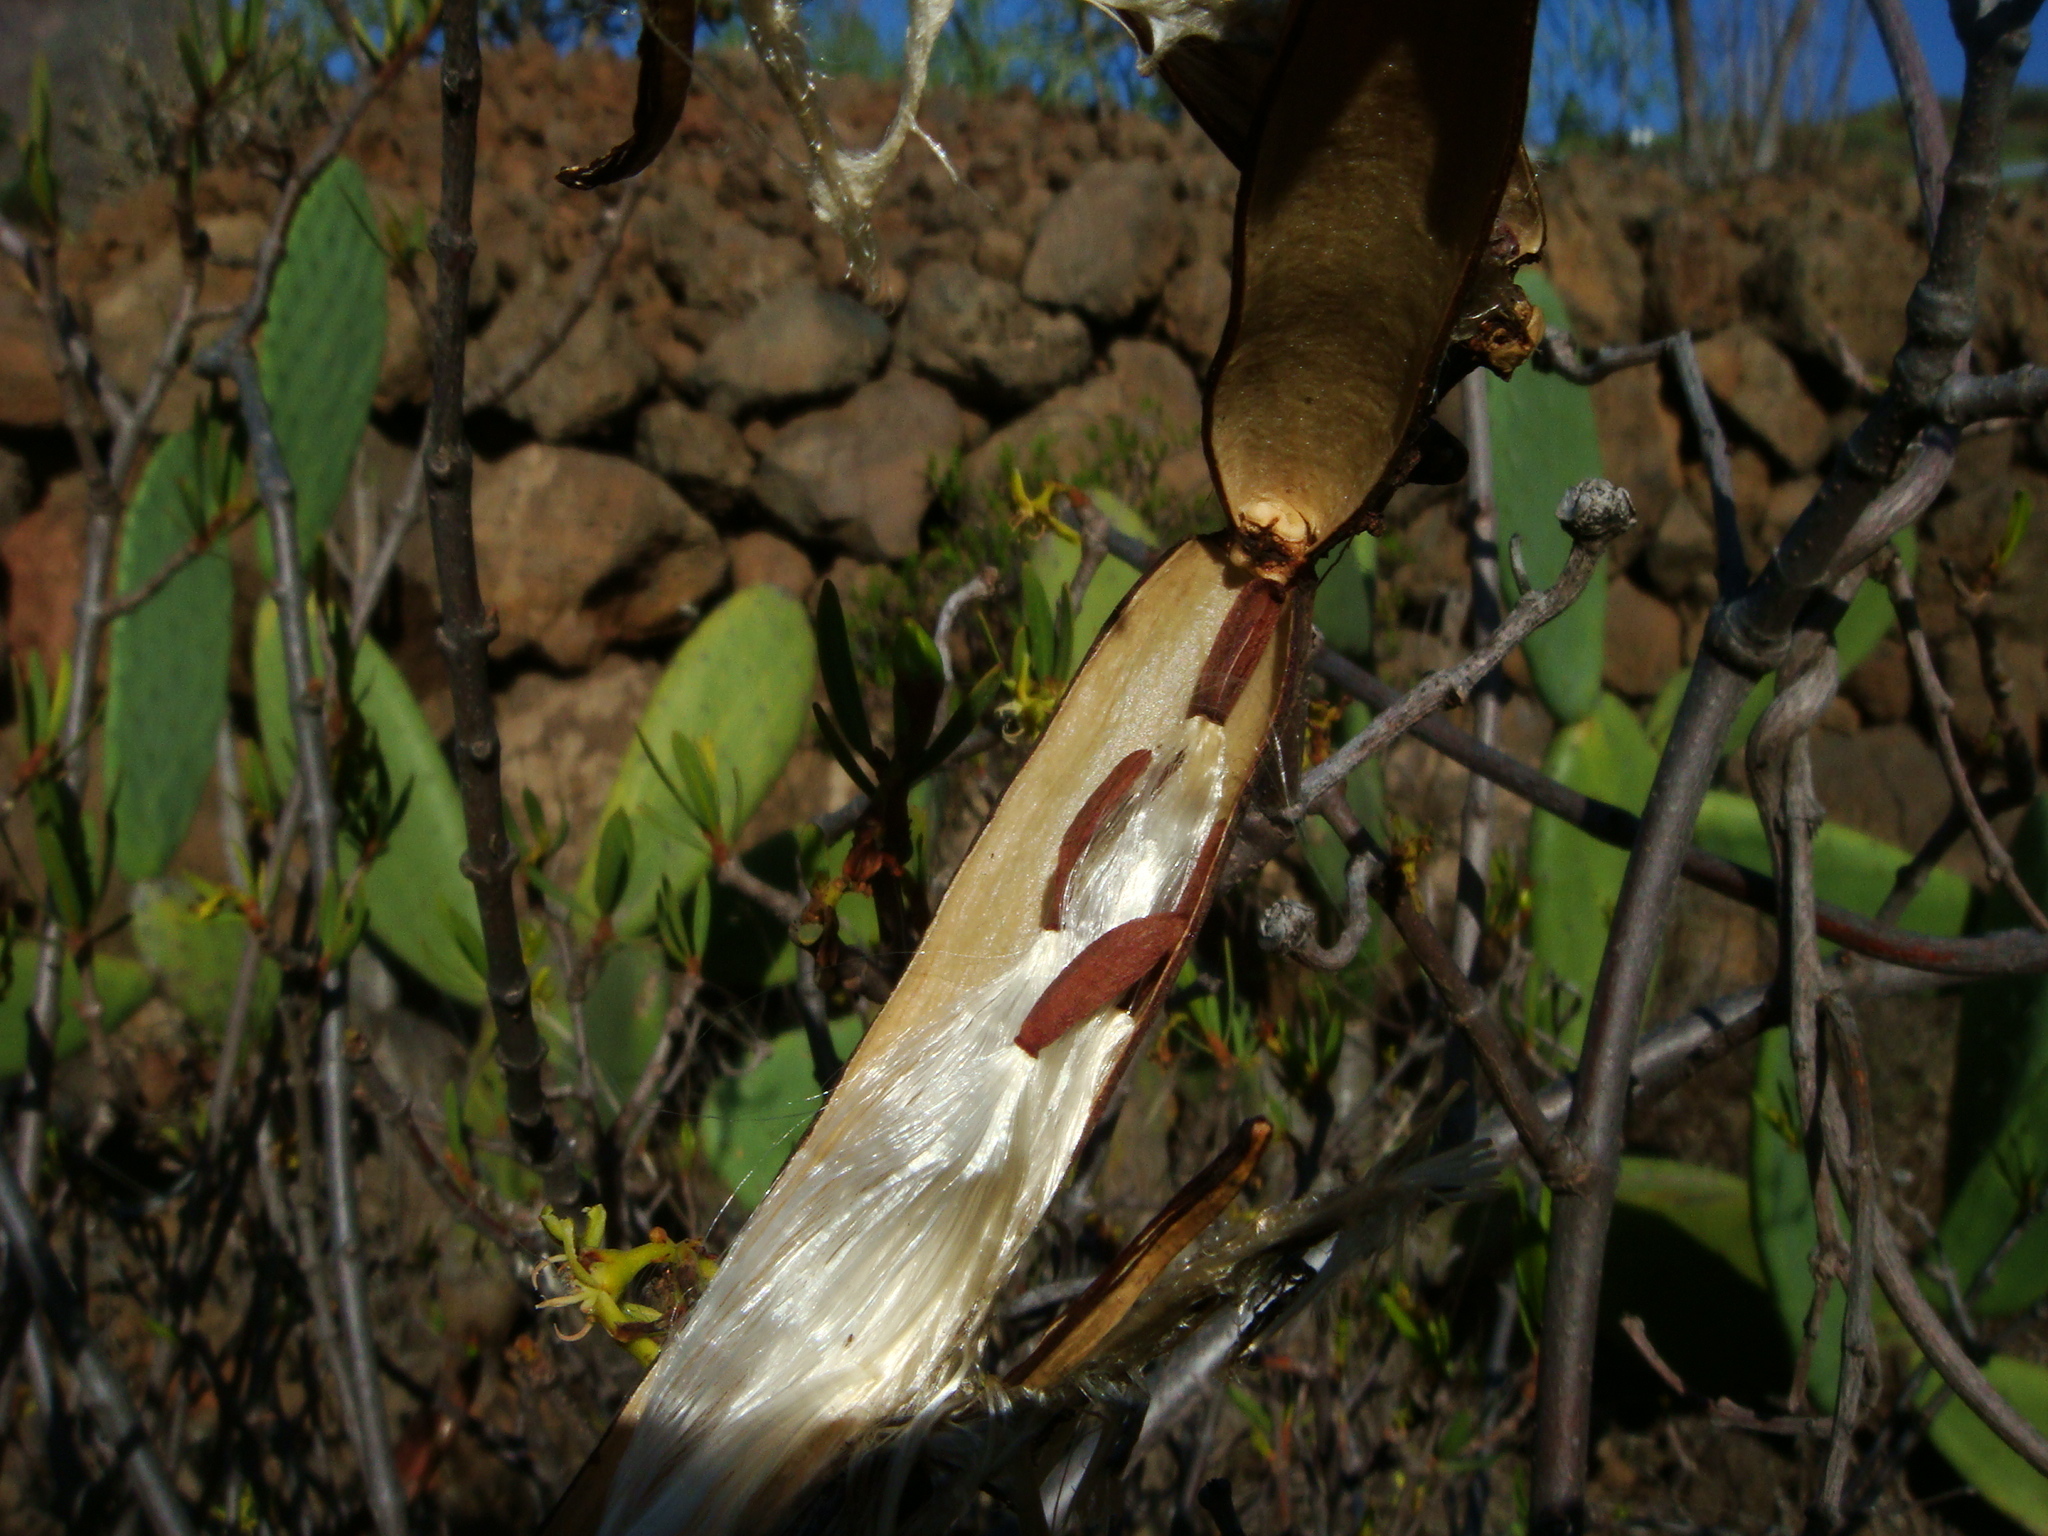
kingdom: Plantae
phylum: Tracheophyta
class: Magnoliopsida
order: Gentianales
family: Apocynaceae
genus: Periploca
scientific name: Periploca laevigata
